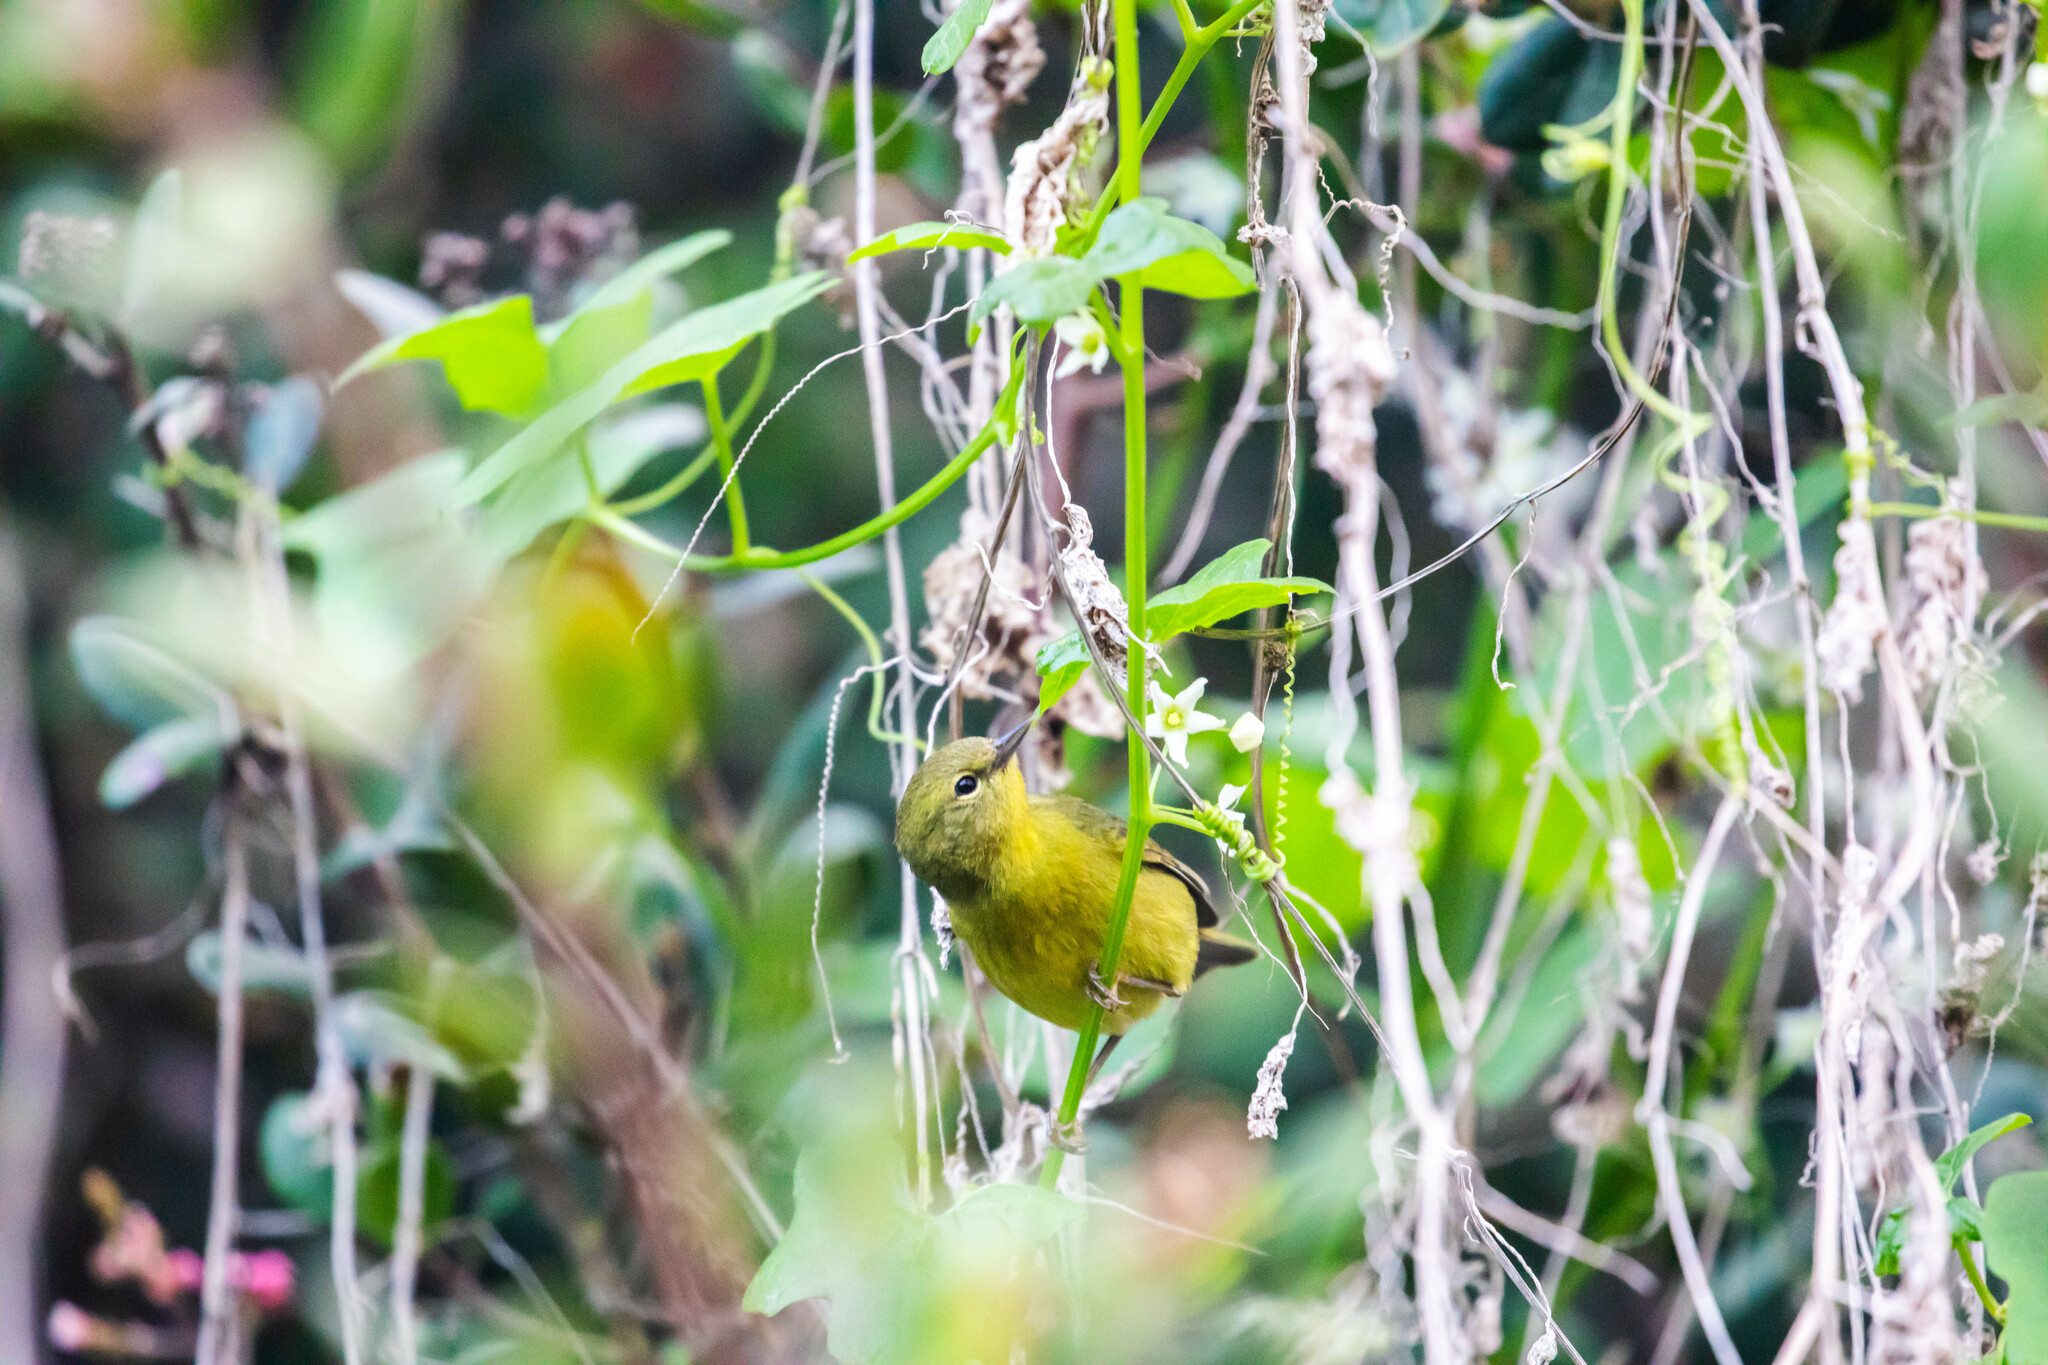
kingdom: Animalia
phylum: Chordata
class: Aves
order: Passeriformes
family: Parulidae
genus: Leiothlypis
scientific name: Leiothlypis celata
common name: Orange-crowned warbler
